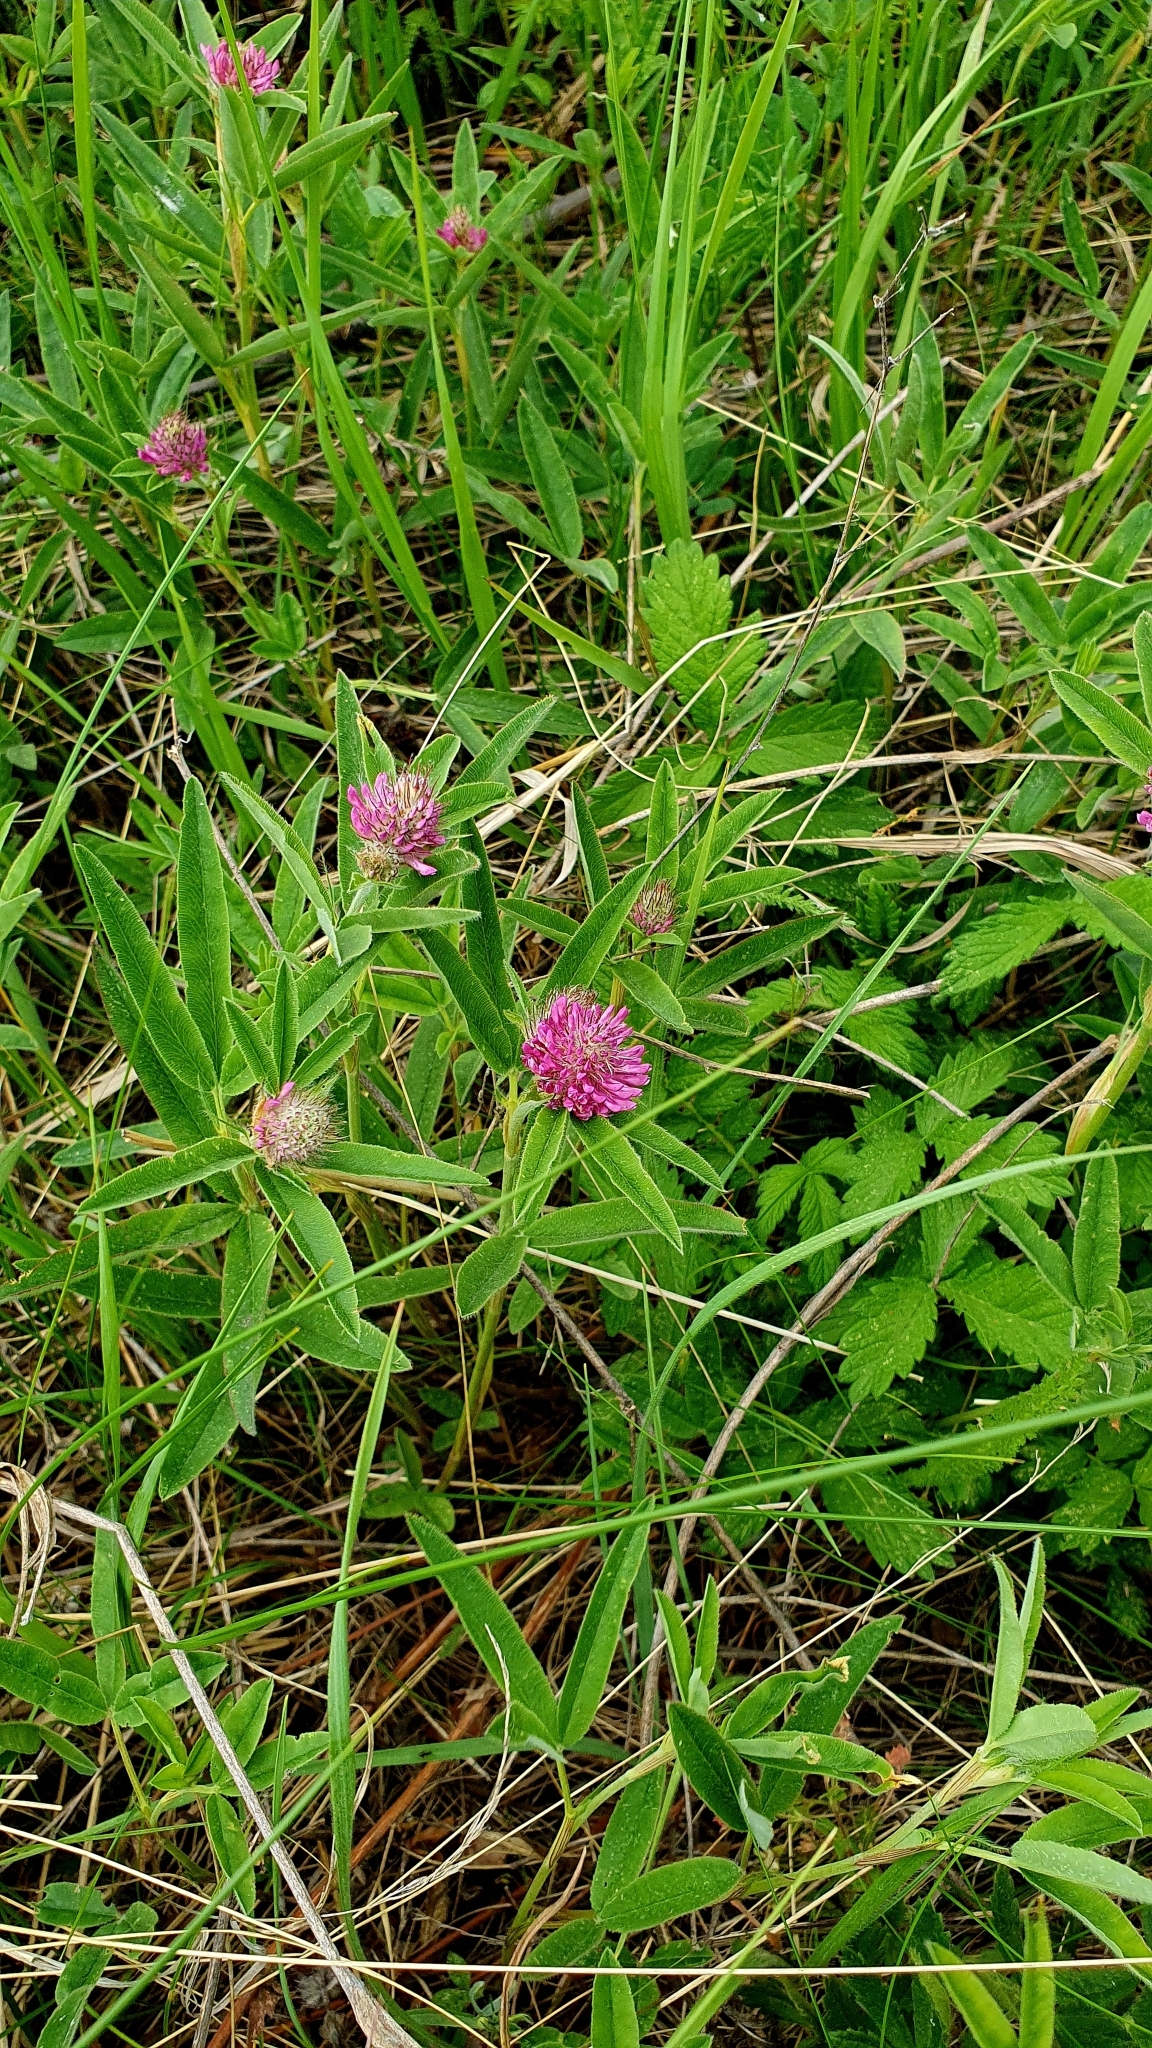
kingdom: Plantae
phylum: Tracheophyta
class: Magnoliopsida
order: Fabales
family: Fabaceae
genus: Trifolium
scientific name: Trifolium alpestre
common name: Owl-head clover
